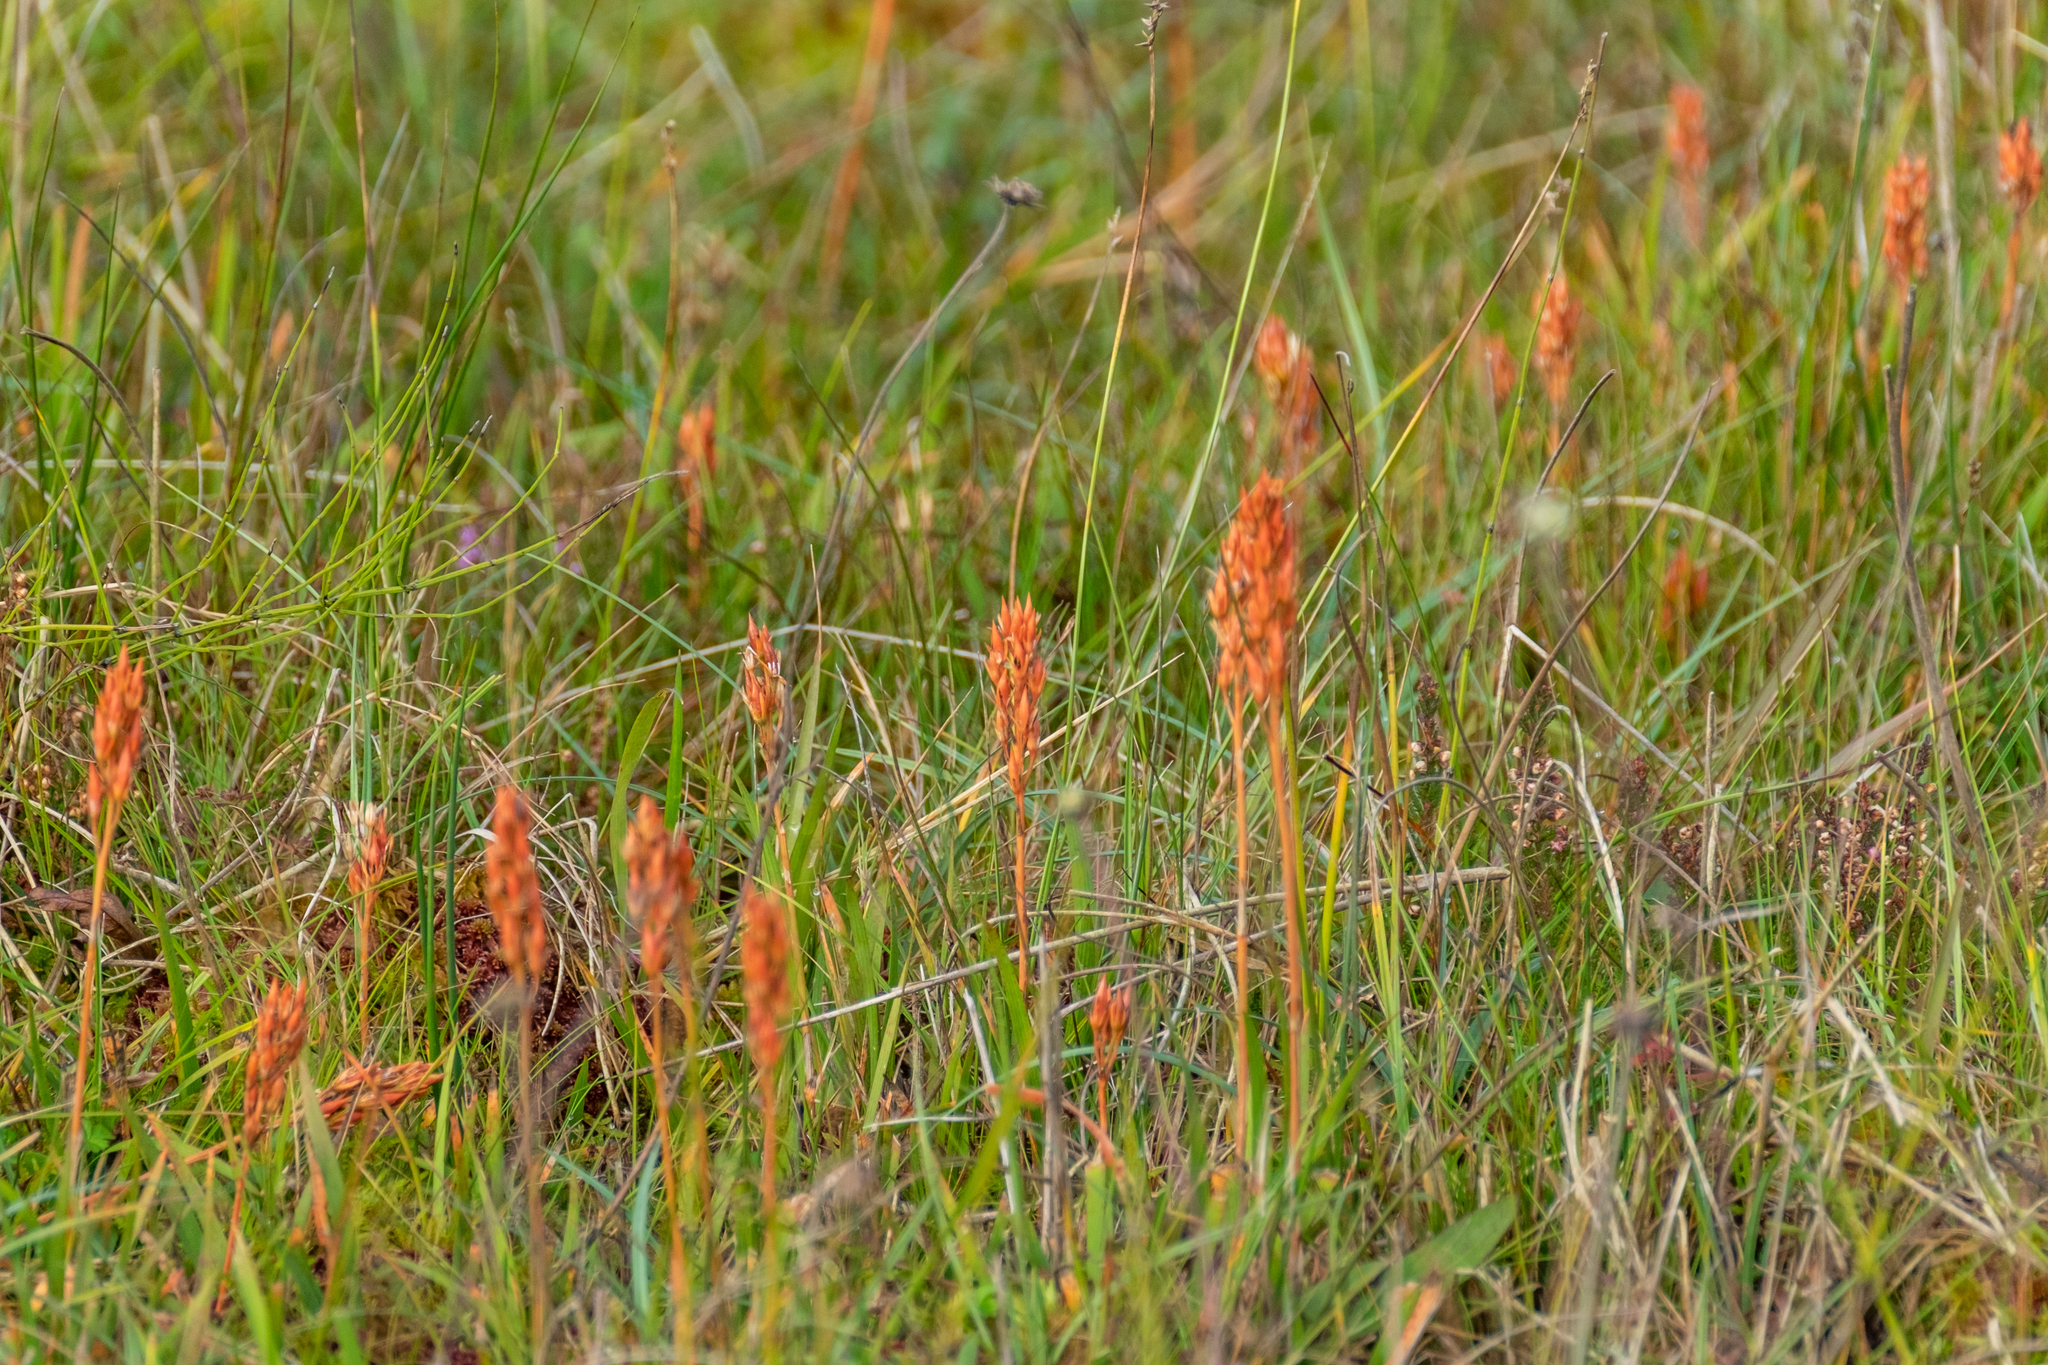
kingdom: Plantae
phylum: Tracheophyta
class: Liliopsida
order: Dioscoreales
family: Nartheciaceae
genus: Narthecium
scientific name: Narthecium ossifragum
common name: Bog asphodel
